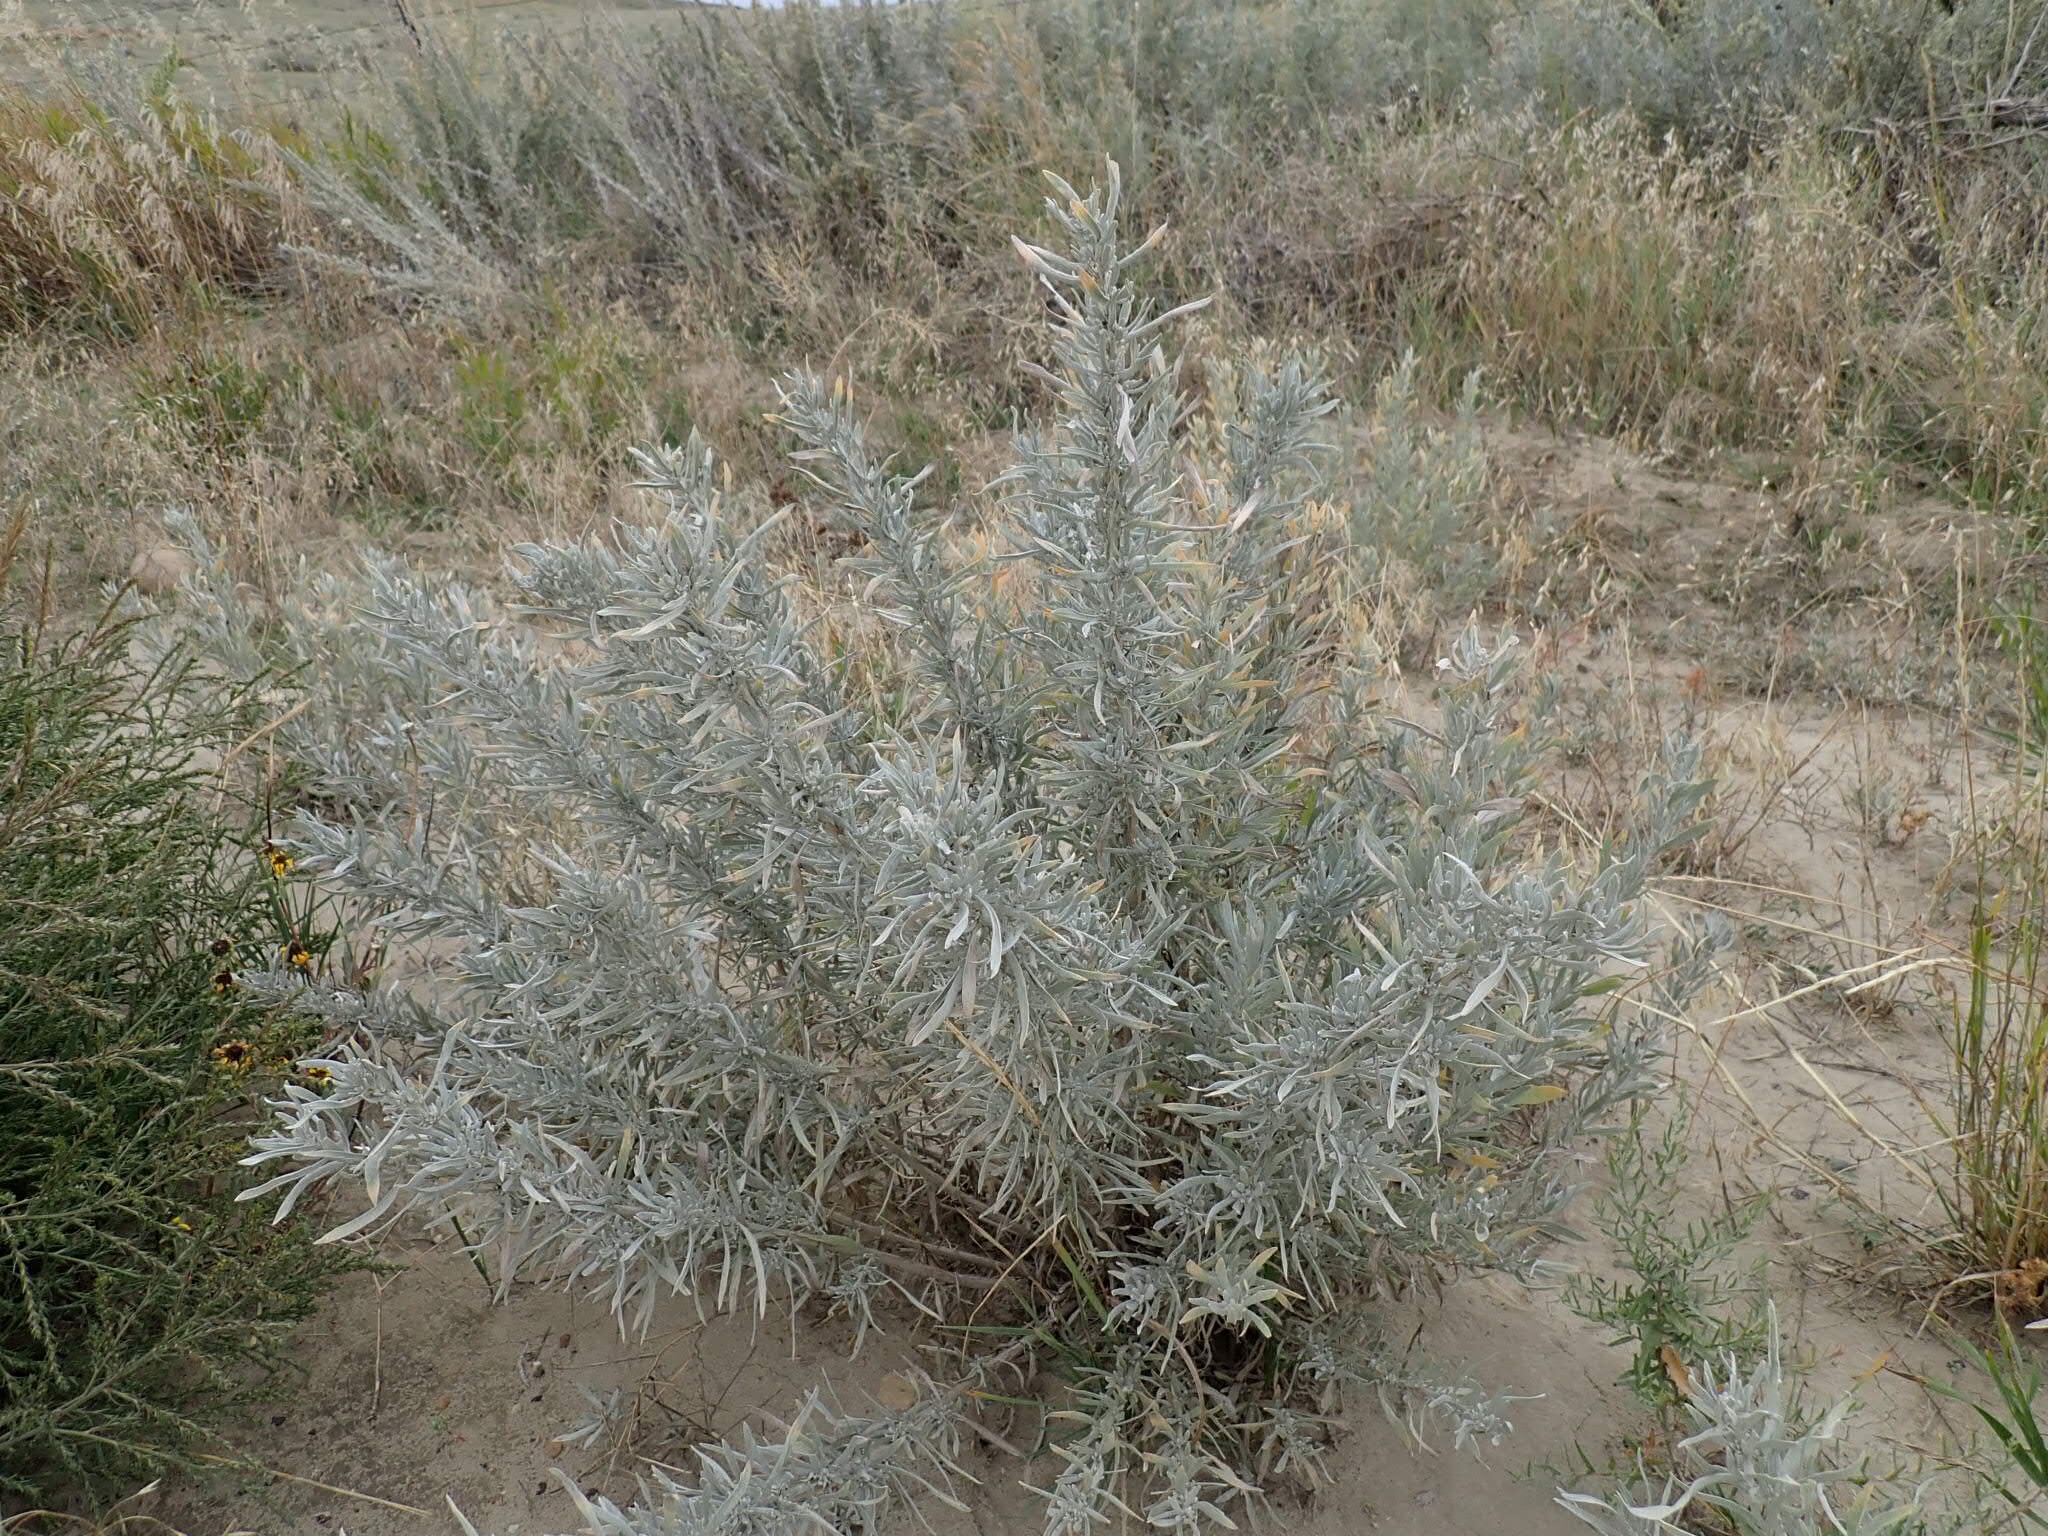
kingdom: Plantae
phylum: Tracheophyta
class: Magnoliopsida
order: Asterales
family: Asteraceae
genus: Artemisia
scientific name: Artemisia cana
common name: Silver sagebrush
